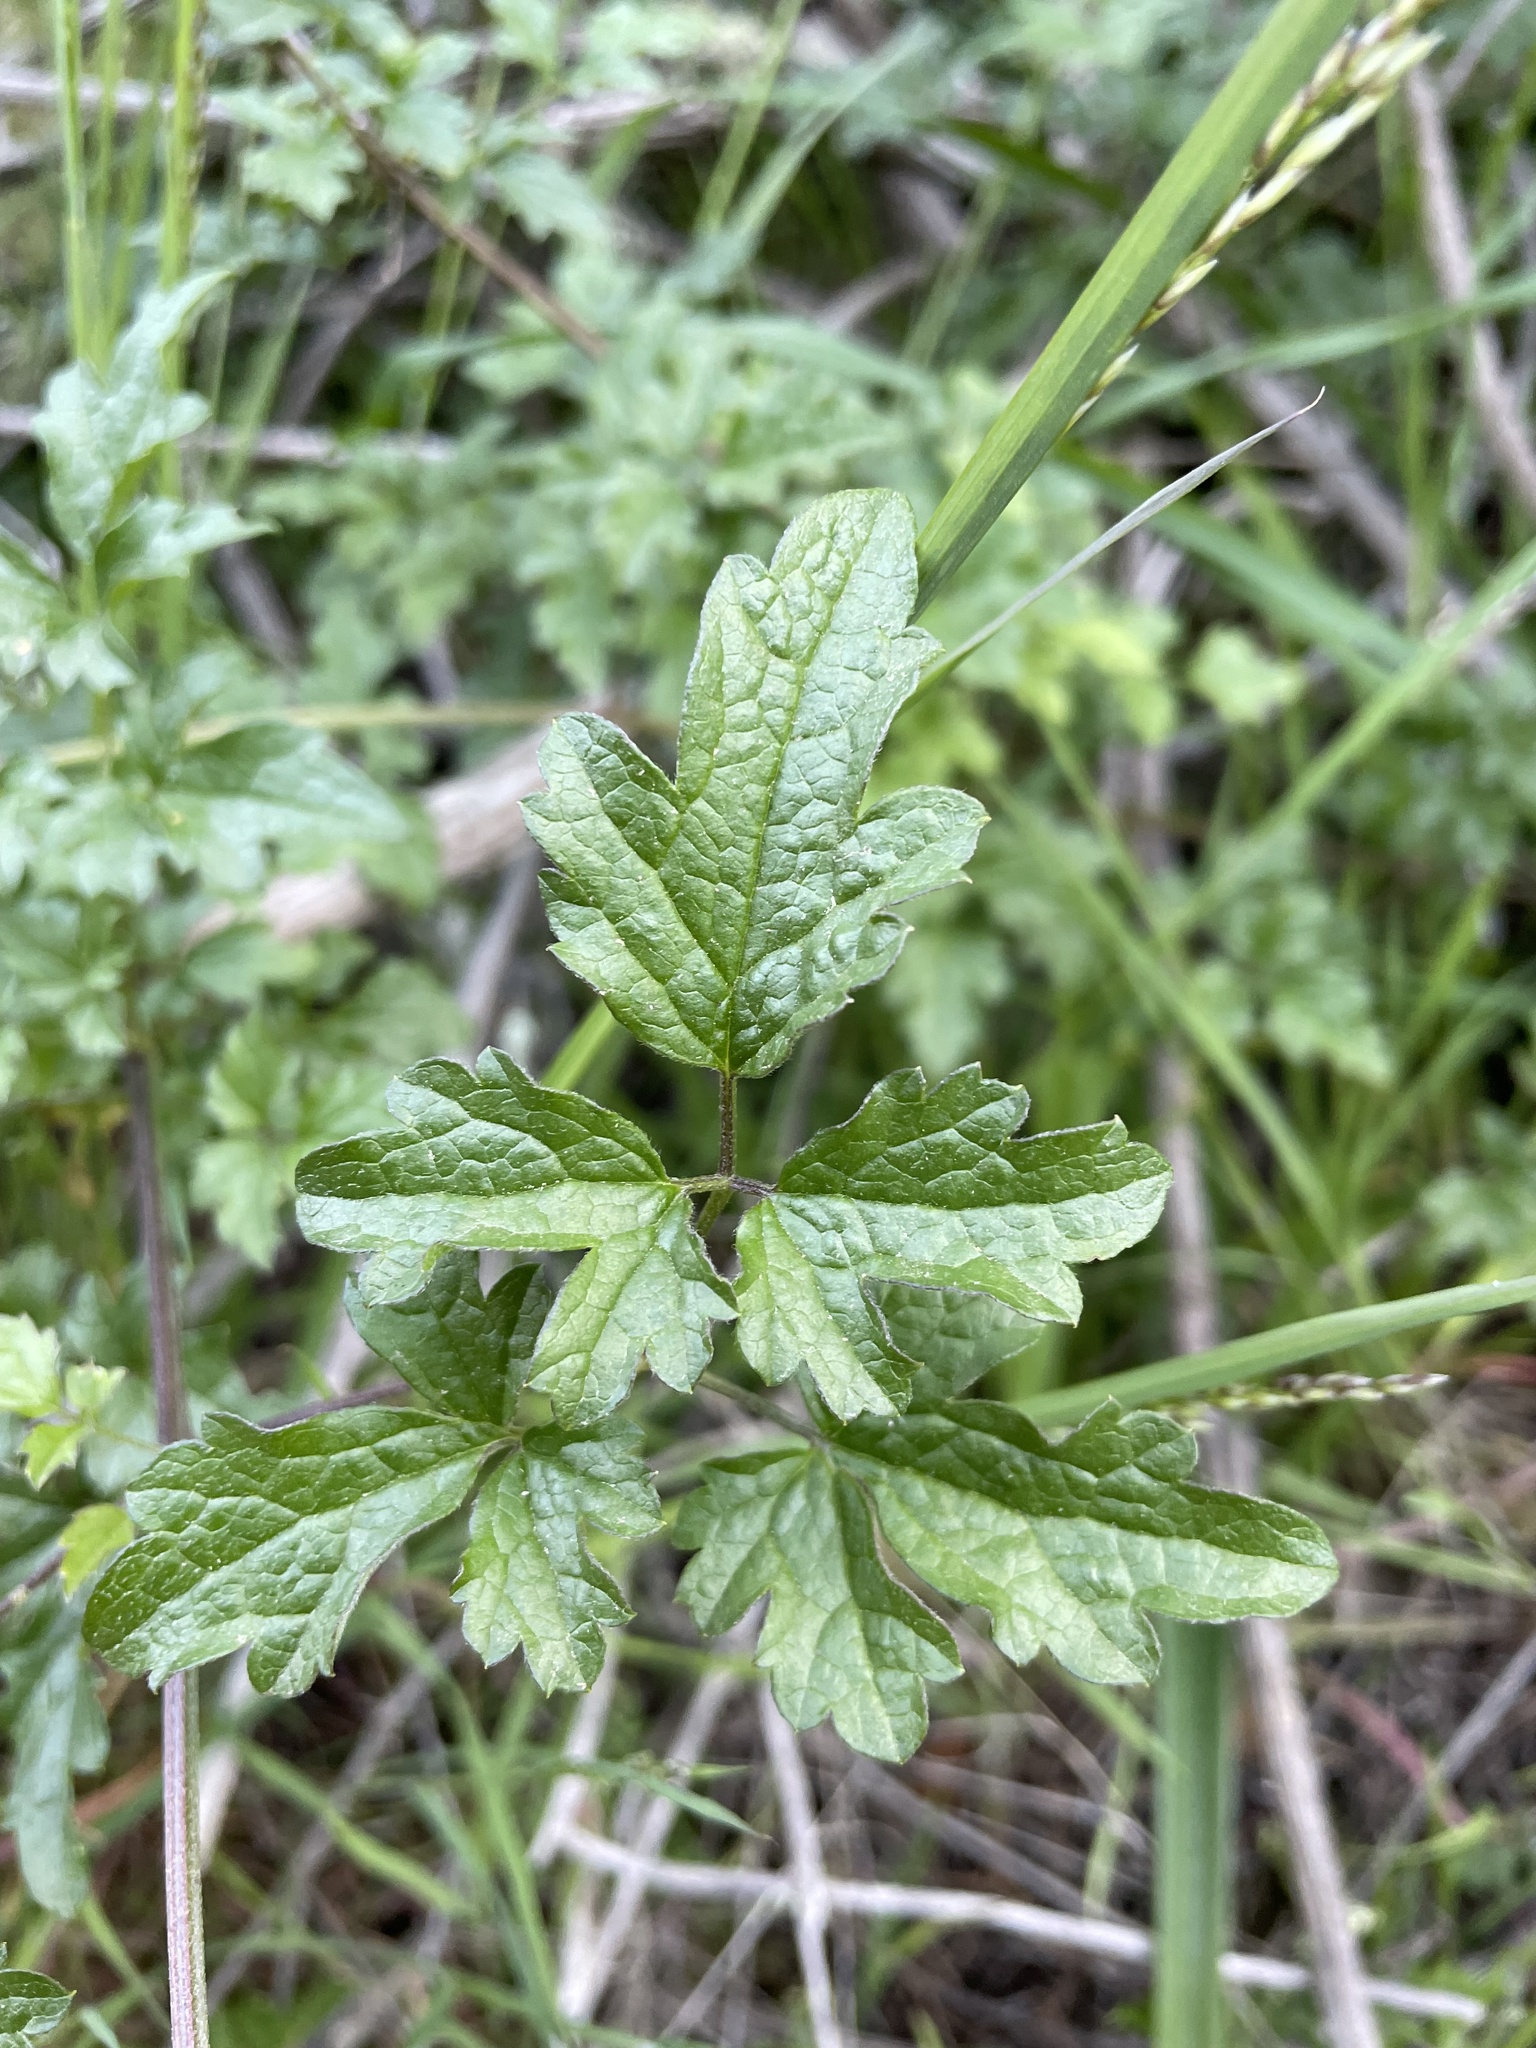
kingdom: Plantae
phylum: Tracheophyta
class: Magnoliopsida
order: Ranunculales
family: Ranunculaceae
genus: Clematis
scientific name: Clematis lasiantha
